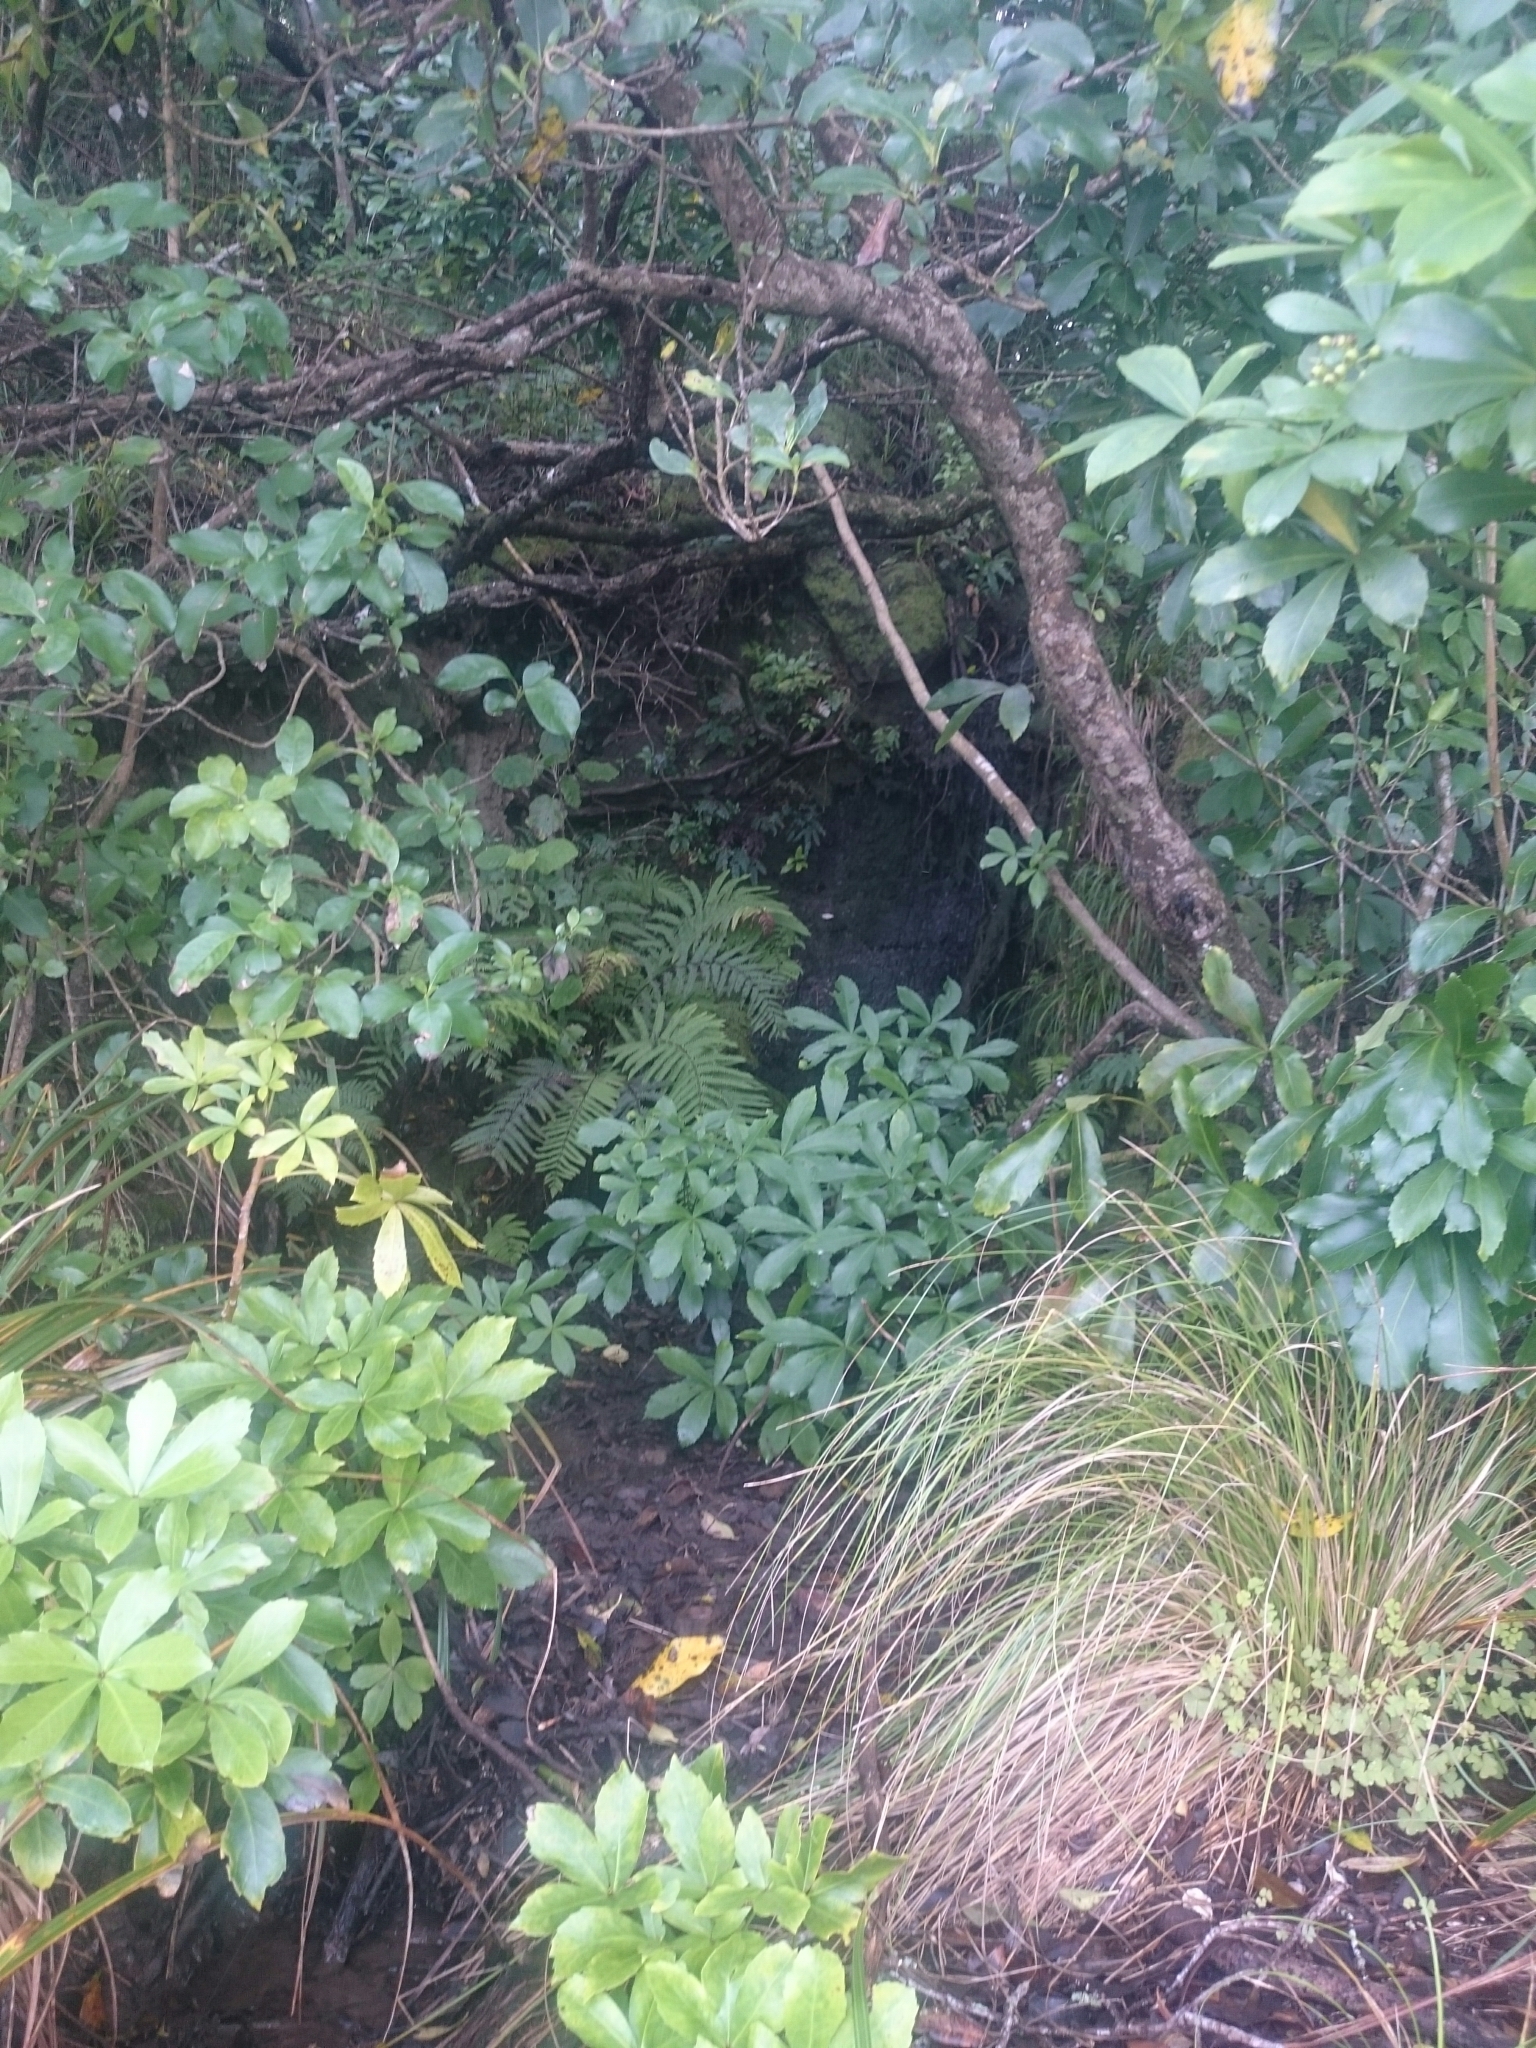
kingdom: Plantae
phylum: Tracheophyta
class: Magnoliopsida
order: Apiales
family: Araliaceae
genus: Pseudopanax
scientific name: Pseudopanax lessonii
